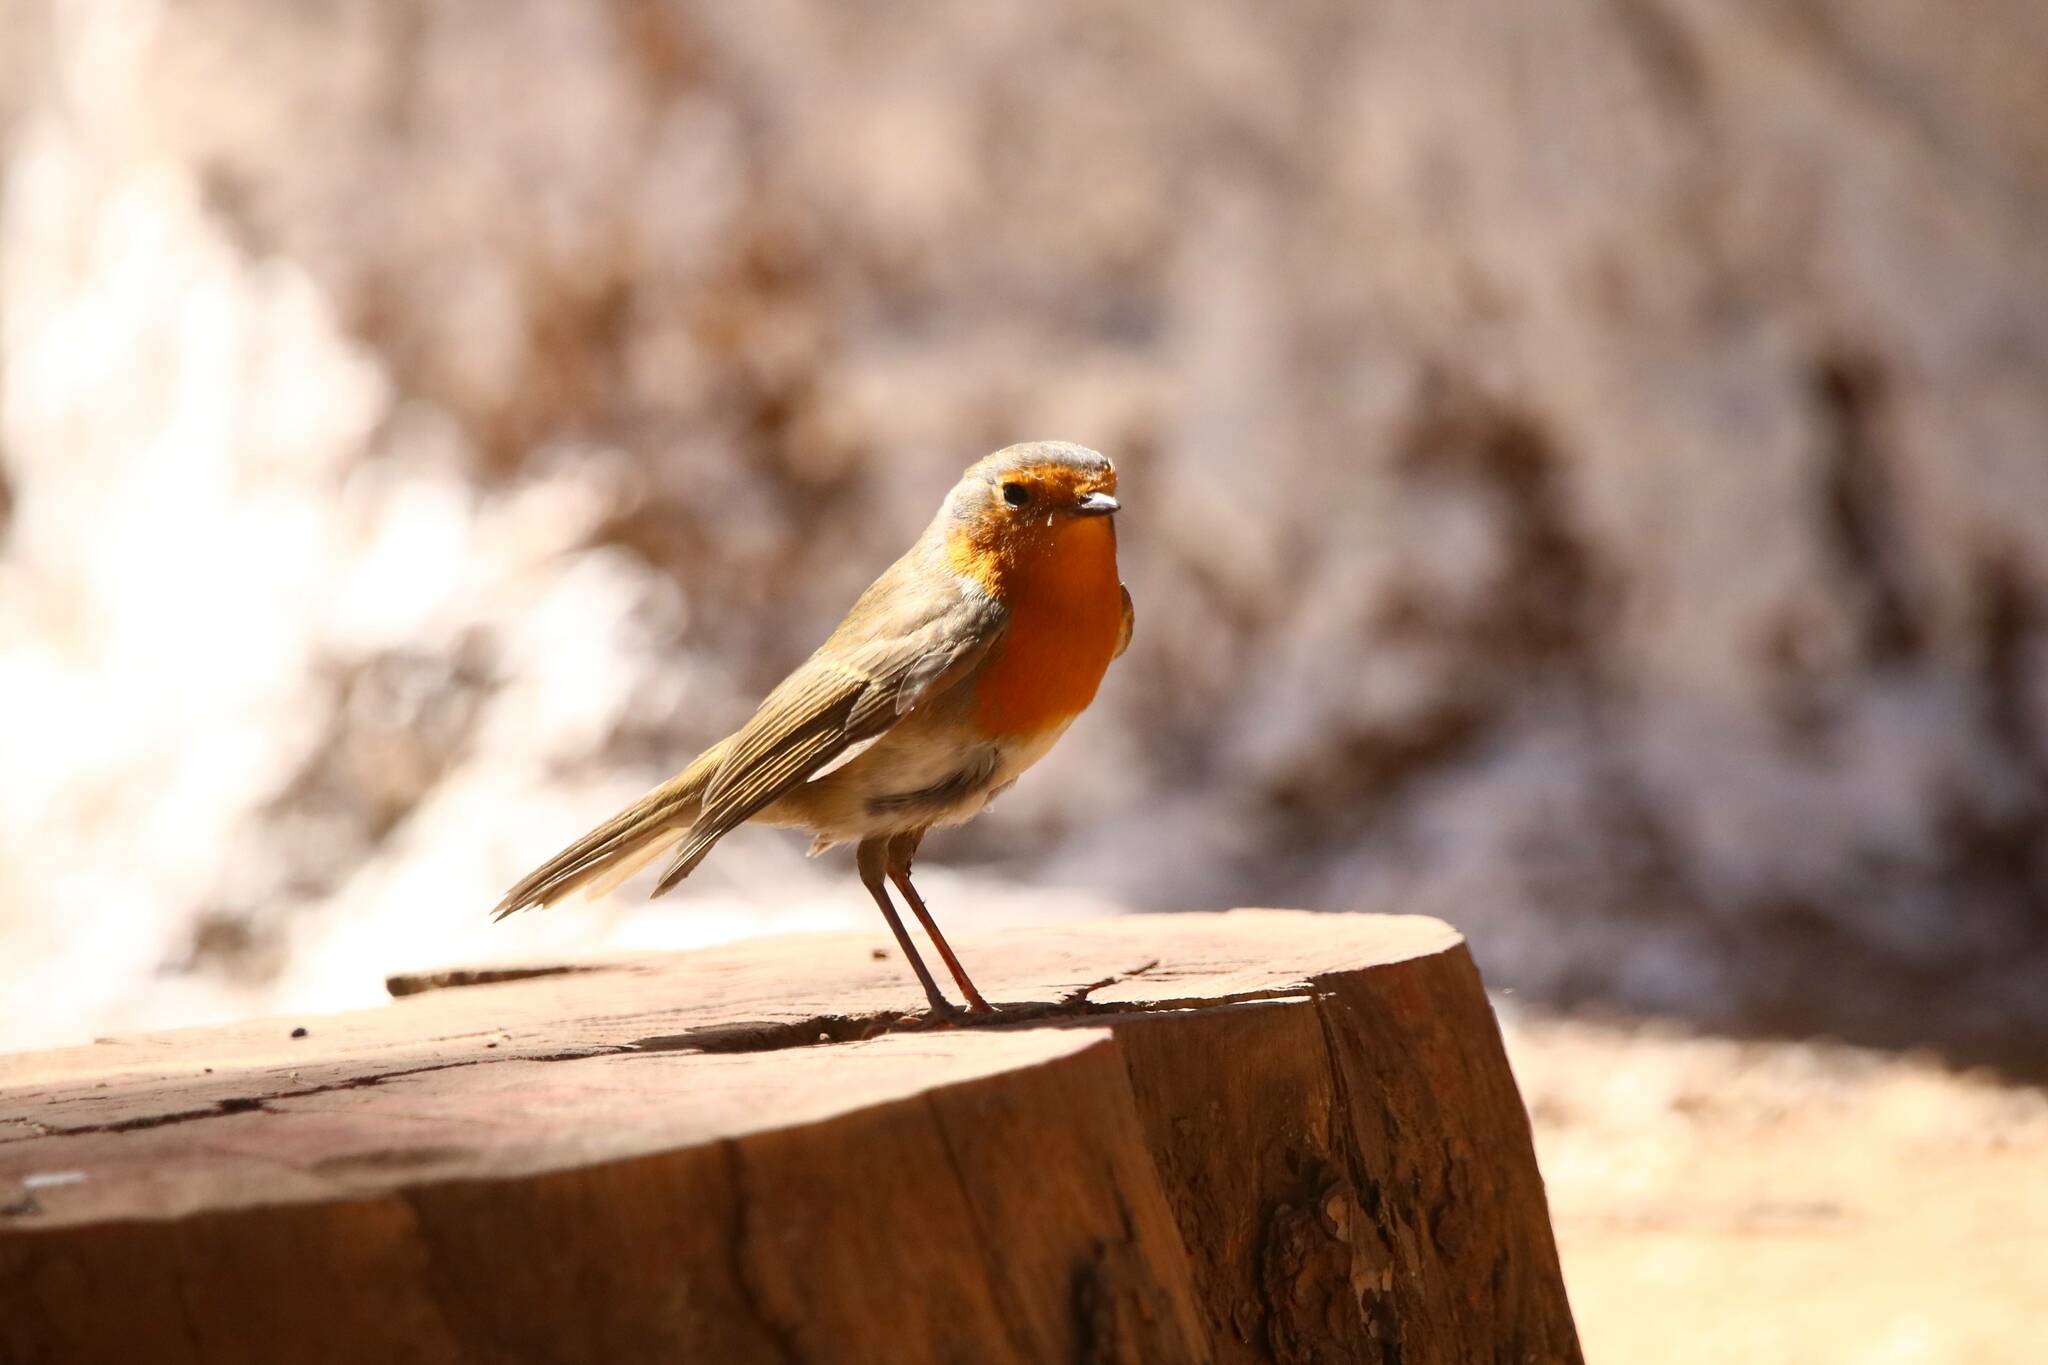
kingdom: Animalia
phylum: Chordata
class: Aves
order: Passeriformes
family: Muscicapidae
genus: Erithacus
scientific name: Erithacus rubecula
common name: European robin
